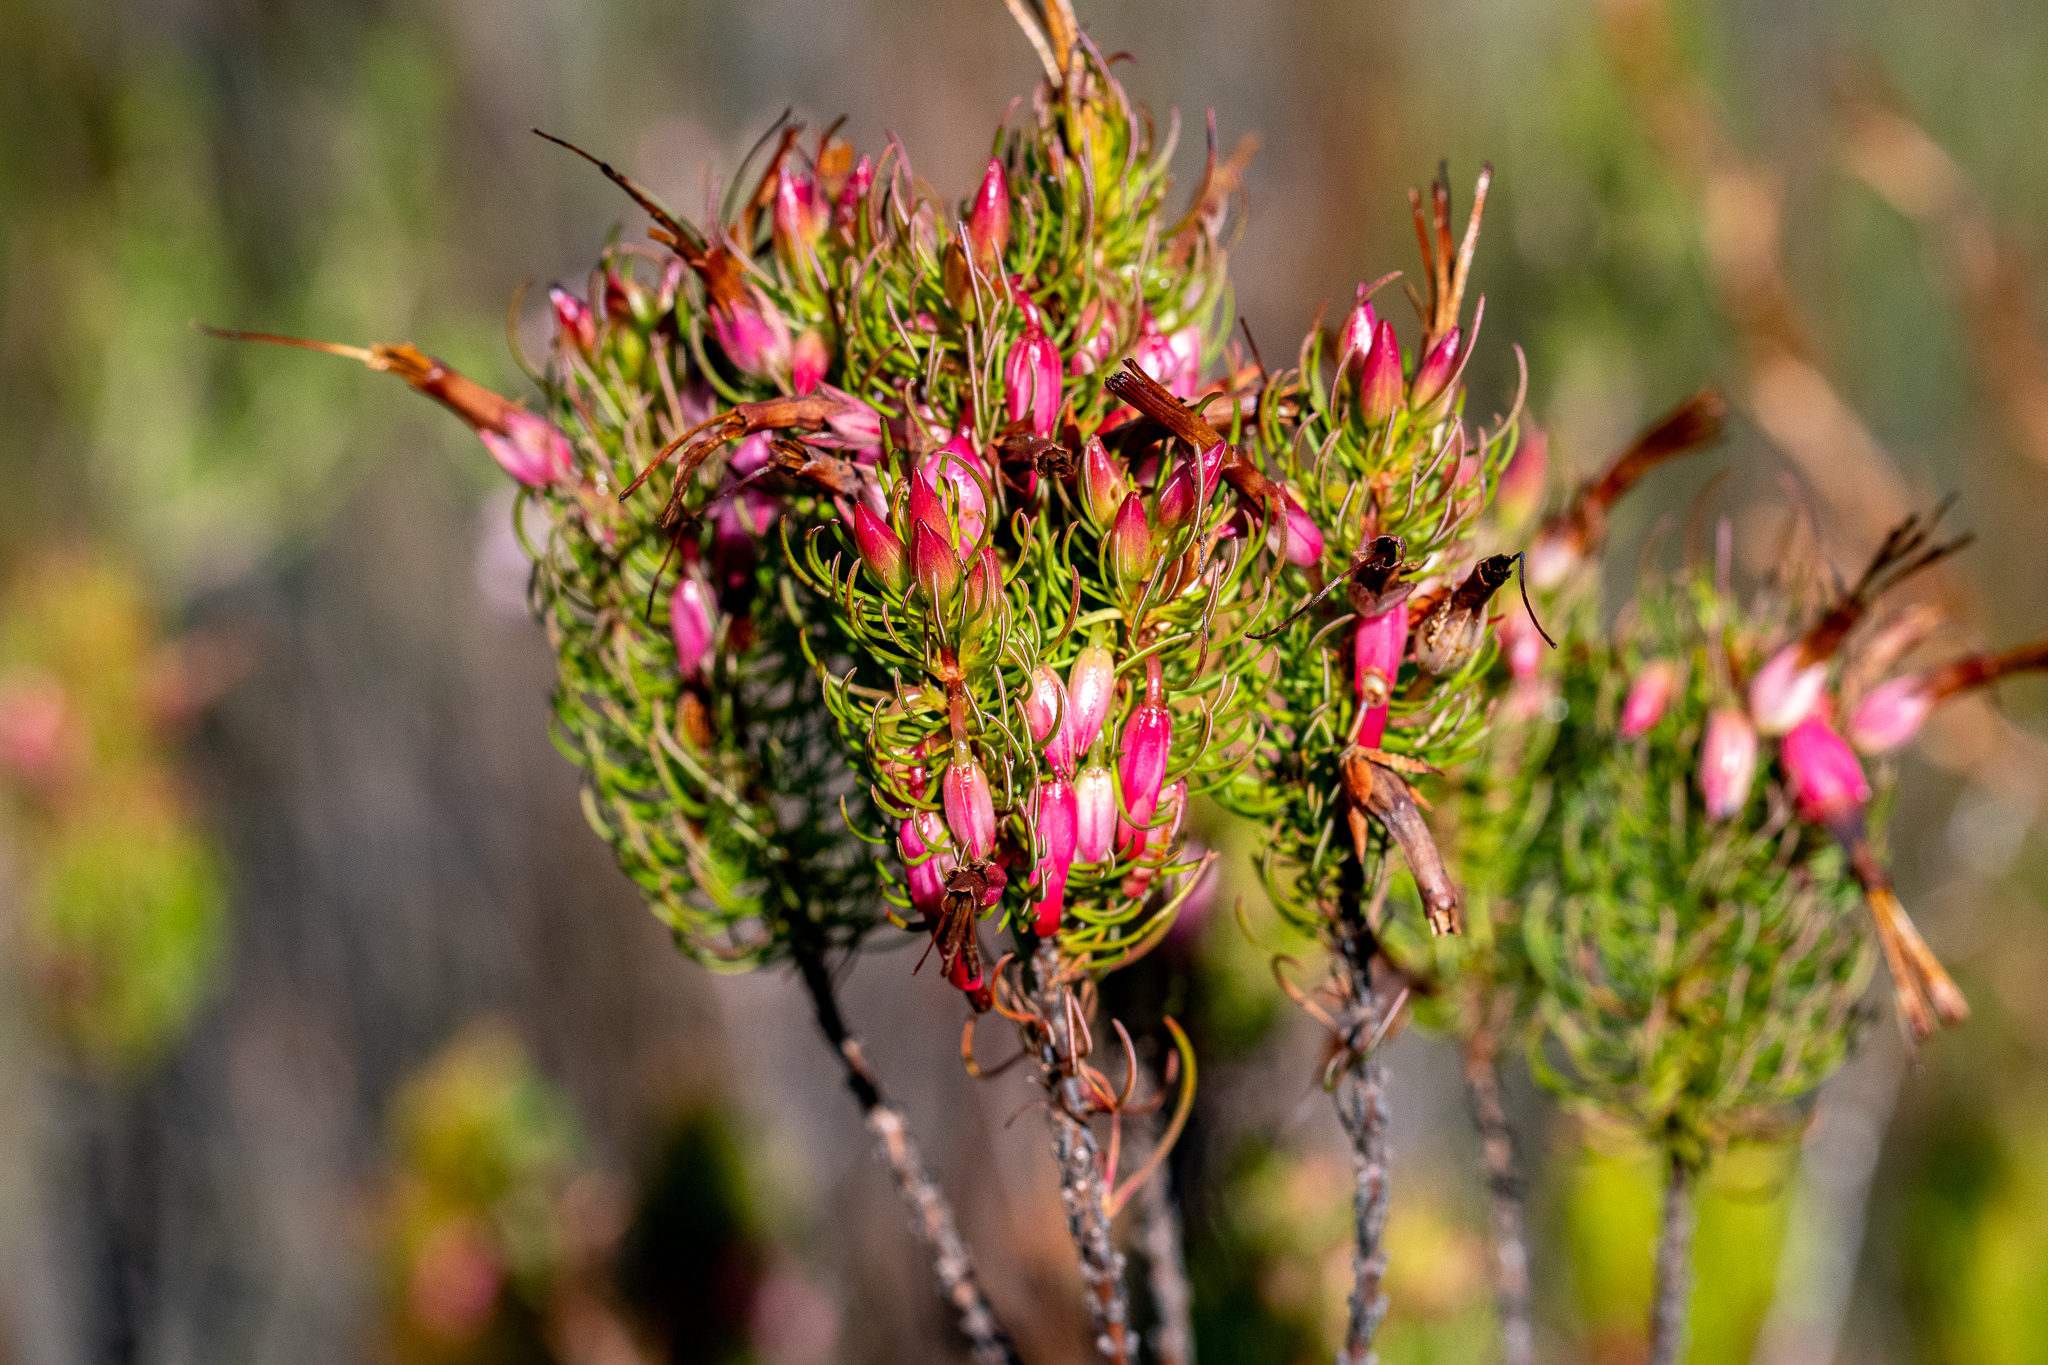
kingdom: Plantae
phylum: Tracheophyta
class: Magnoliopsida
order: Ericales
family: Ericaceae
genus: Erica
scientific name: Erica plukenetii
